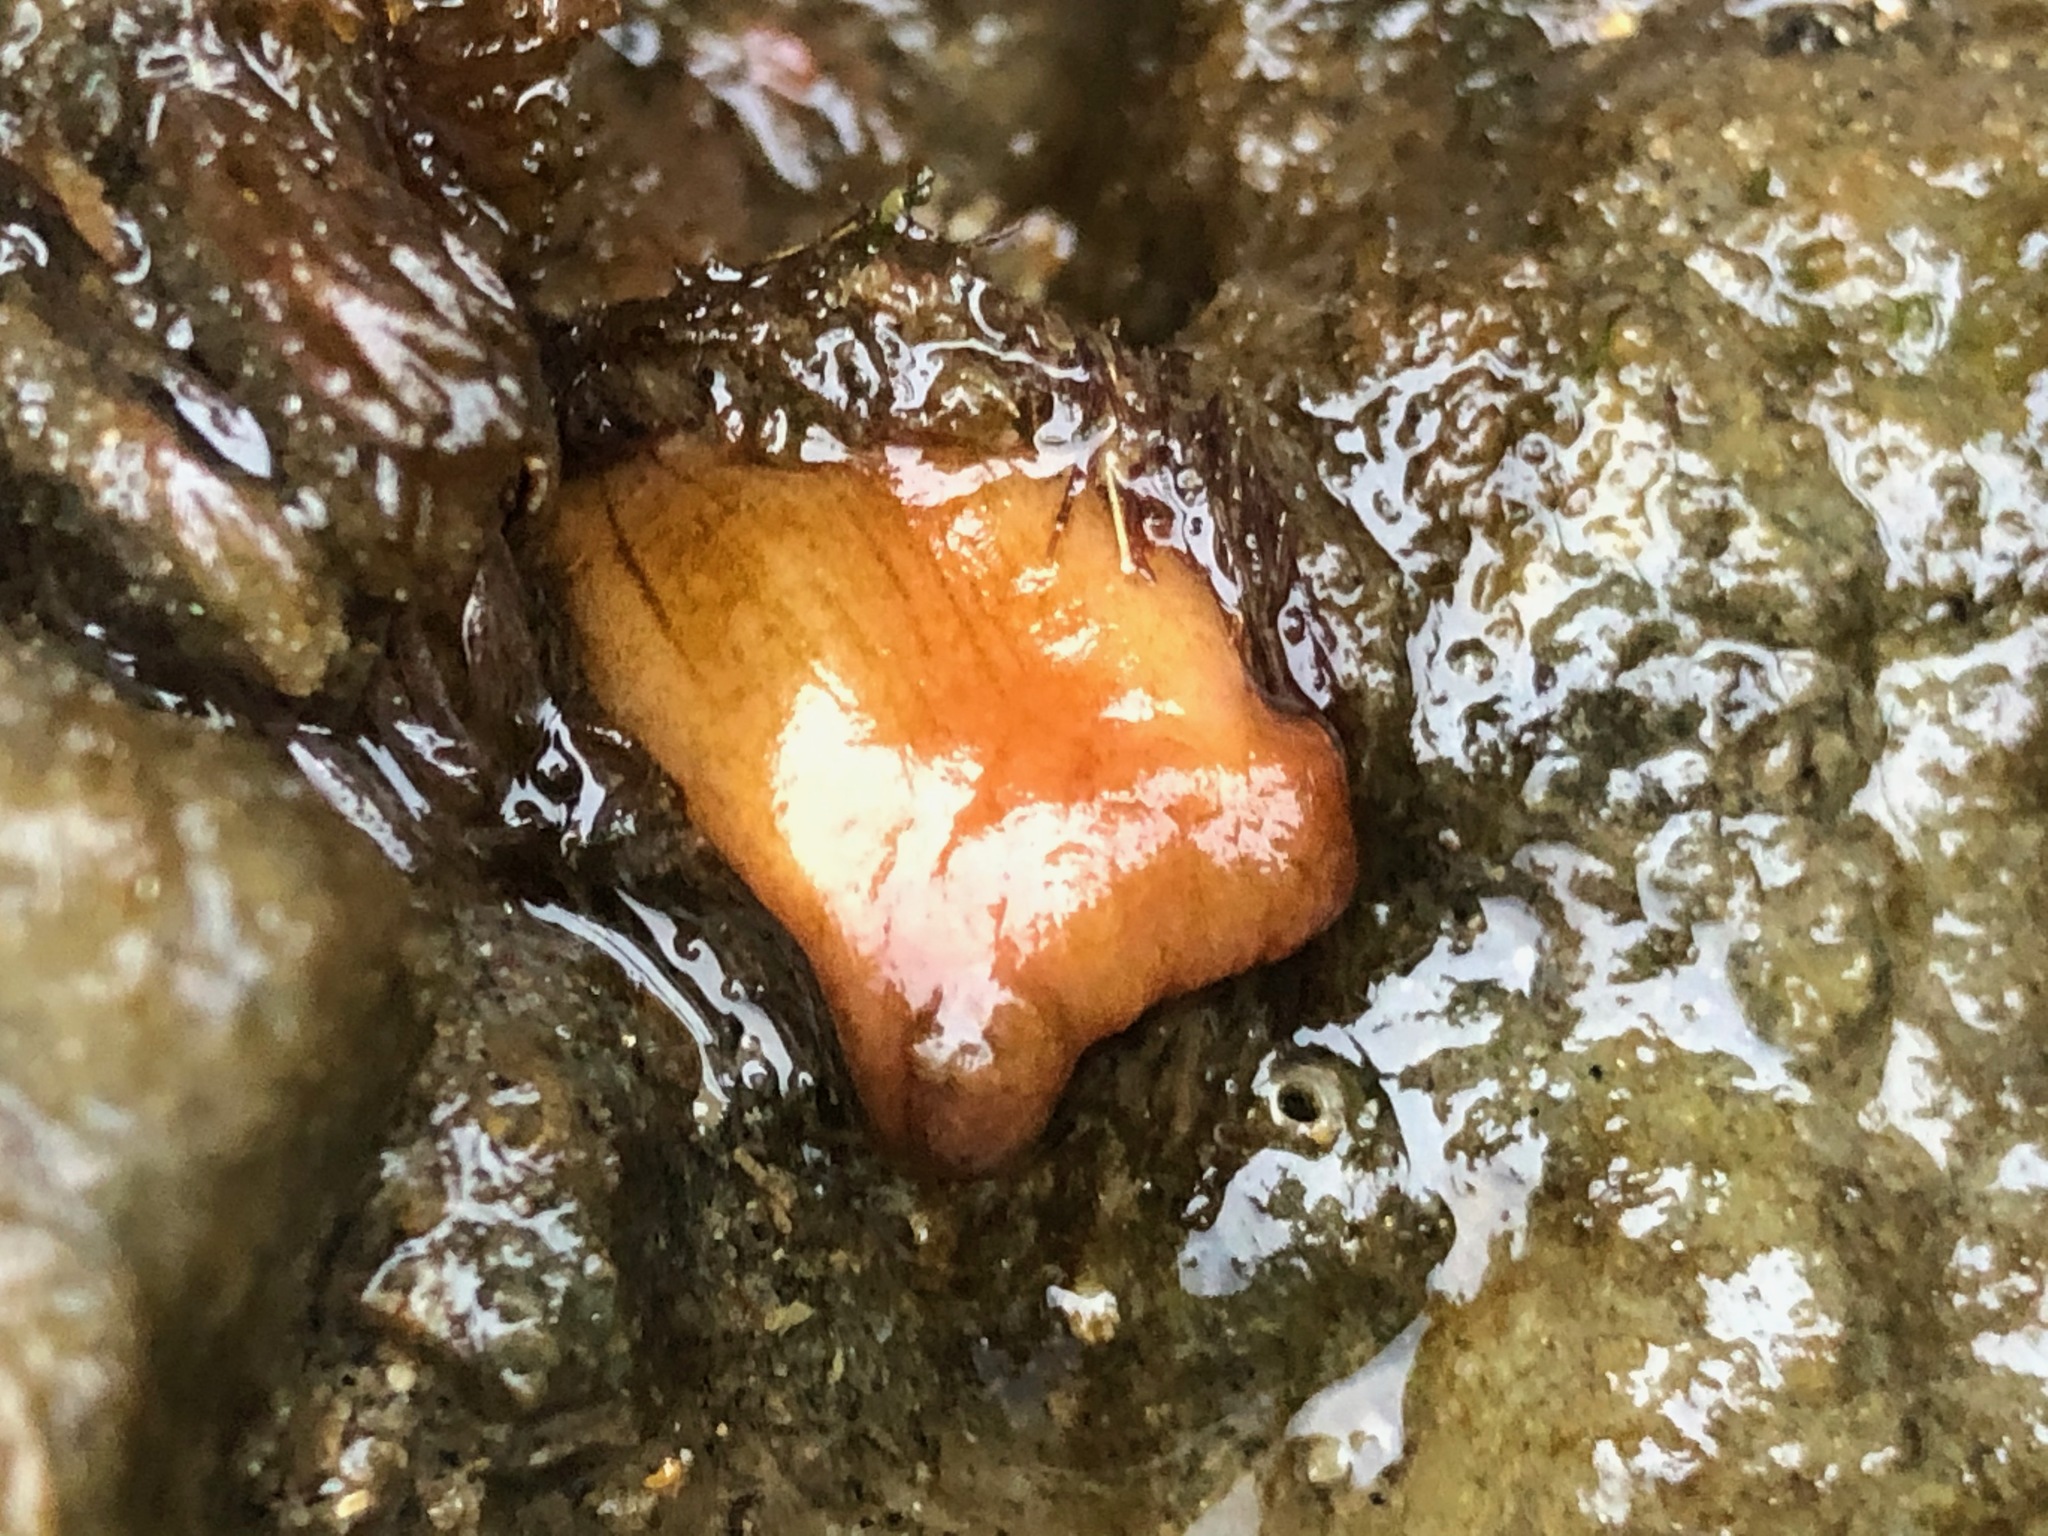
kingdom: Animalia
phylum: Chordata
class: Ascidiacea
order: Stolidobranchia
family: Styelidae
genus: Styela
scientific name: Styela montereyensis
